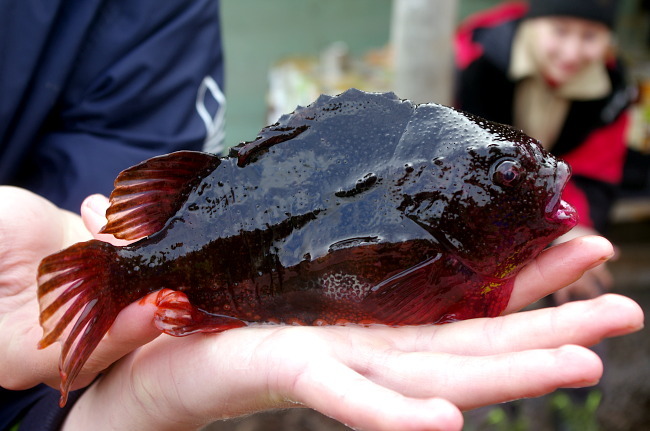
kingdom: Animalia
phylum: Chordata
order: Scorpaeniformes
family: Cyclopteridae
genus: Cyclopterus
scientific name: Cyclopterus lumpus
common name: Lumpsucker
